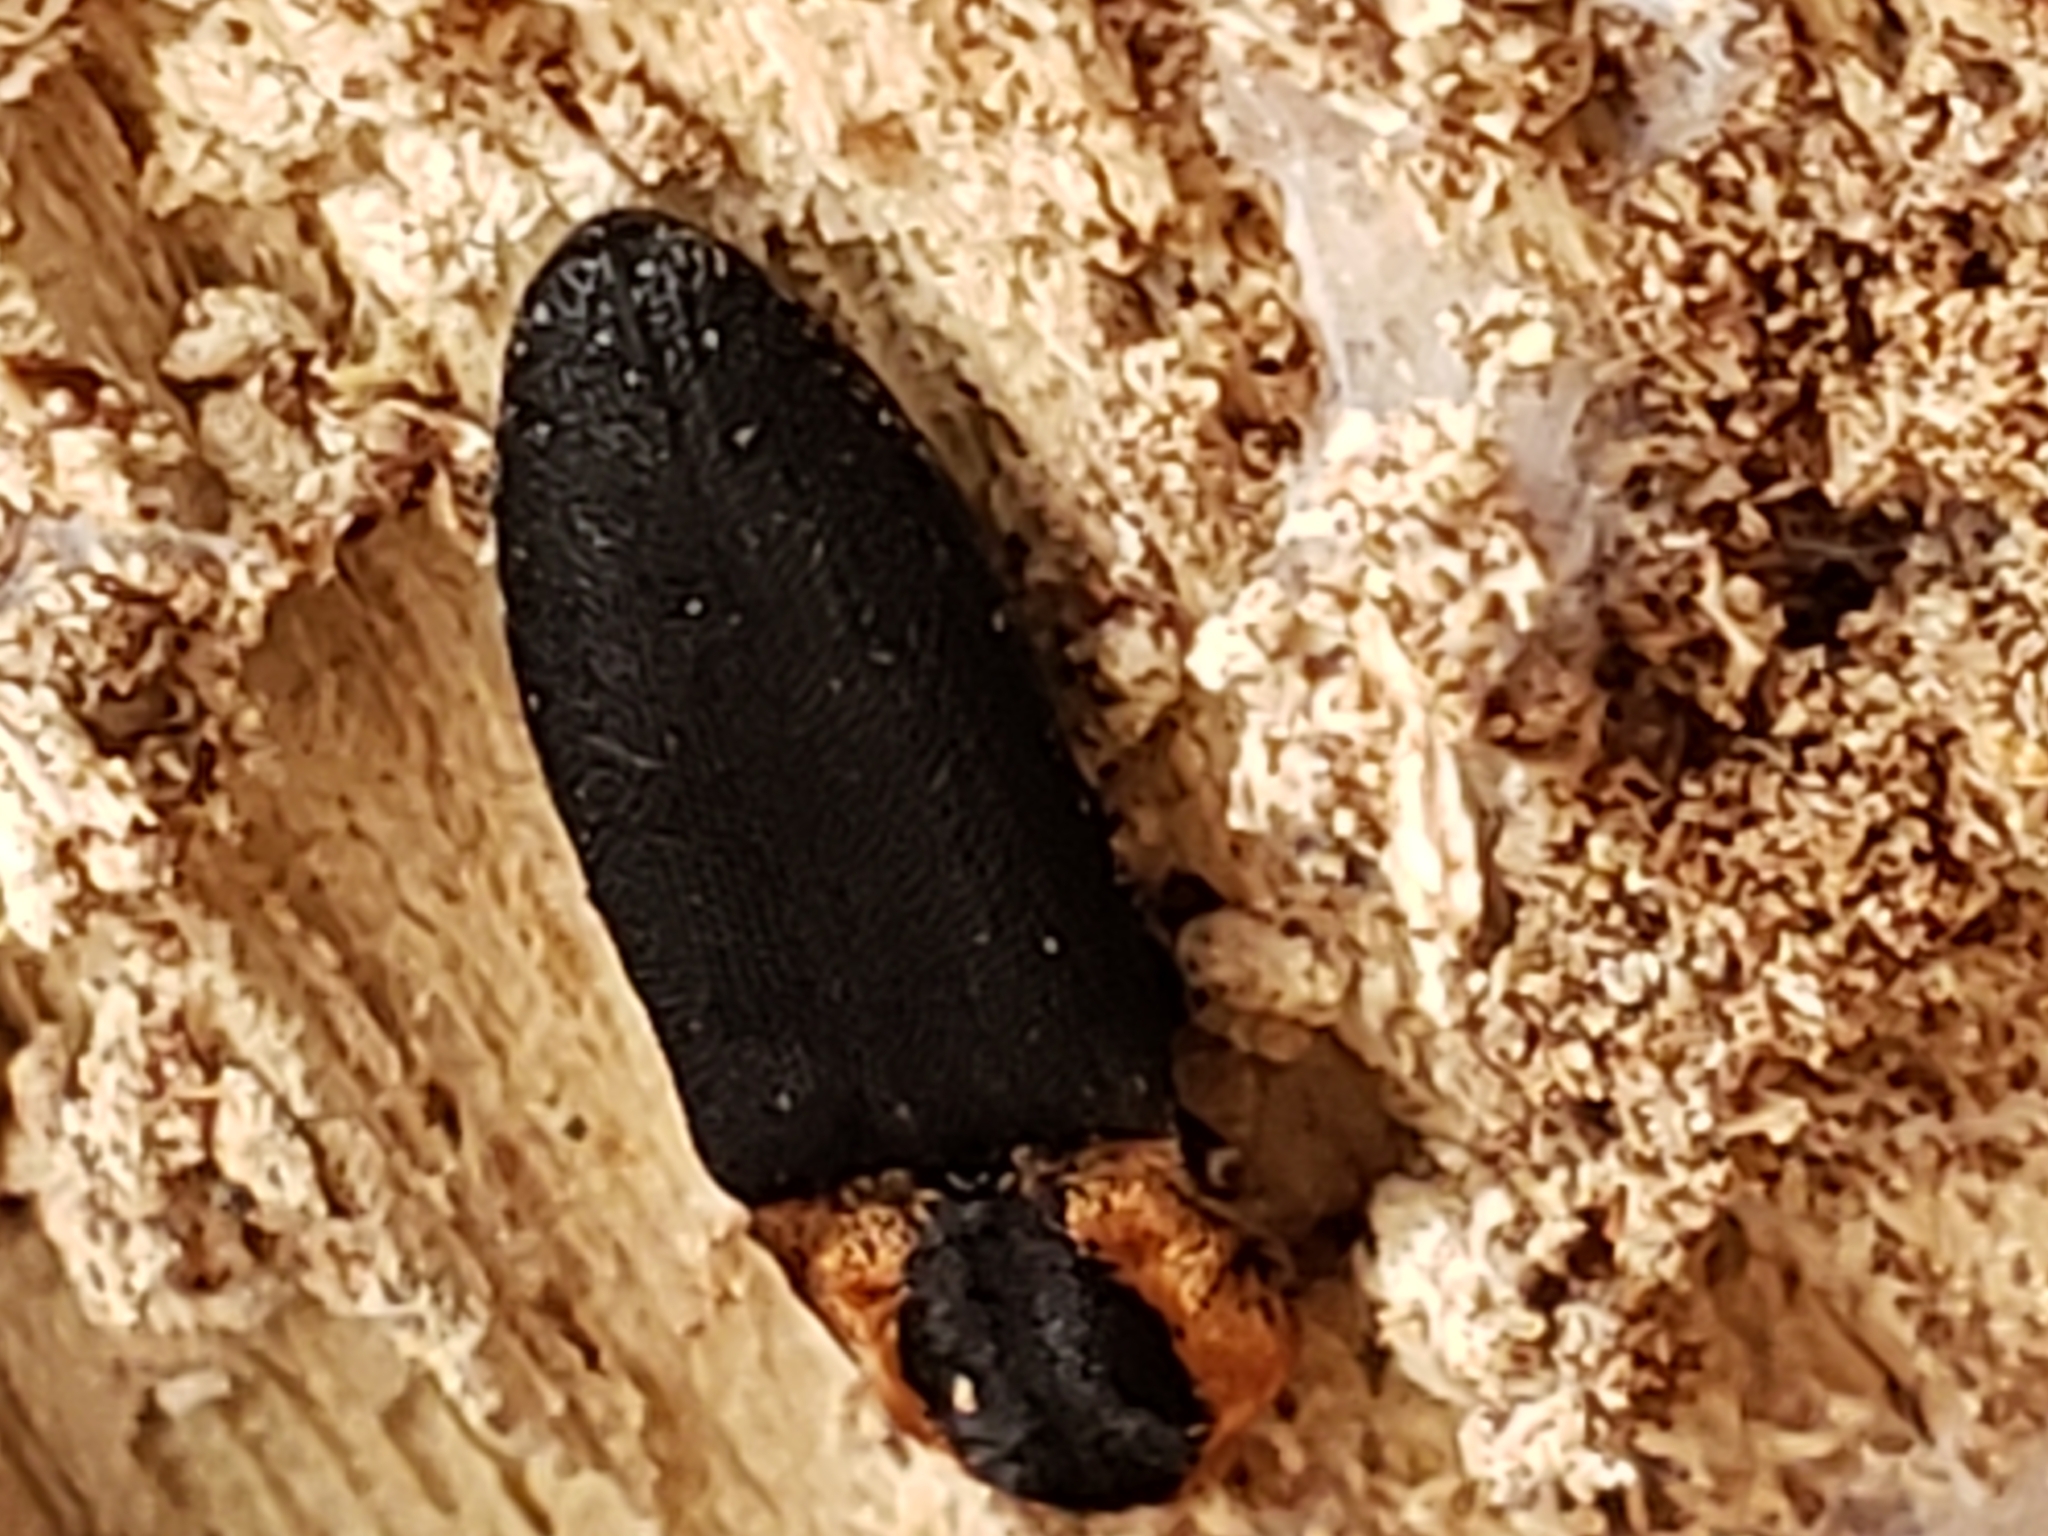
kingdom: Animalia
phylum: Arthropoda
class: Insecta
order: Coleoptera
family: Elateridae
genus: Lacon
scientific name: Lacon discoideus
